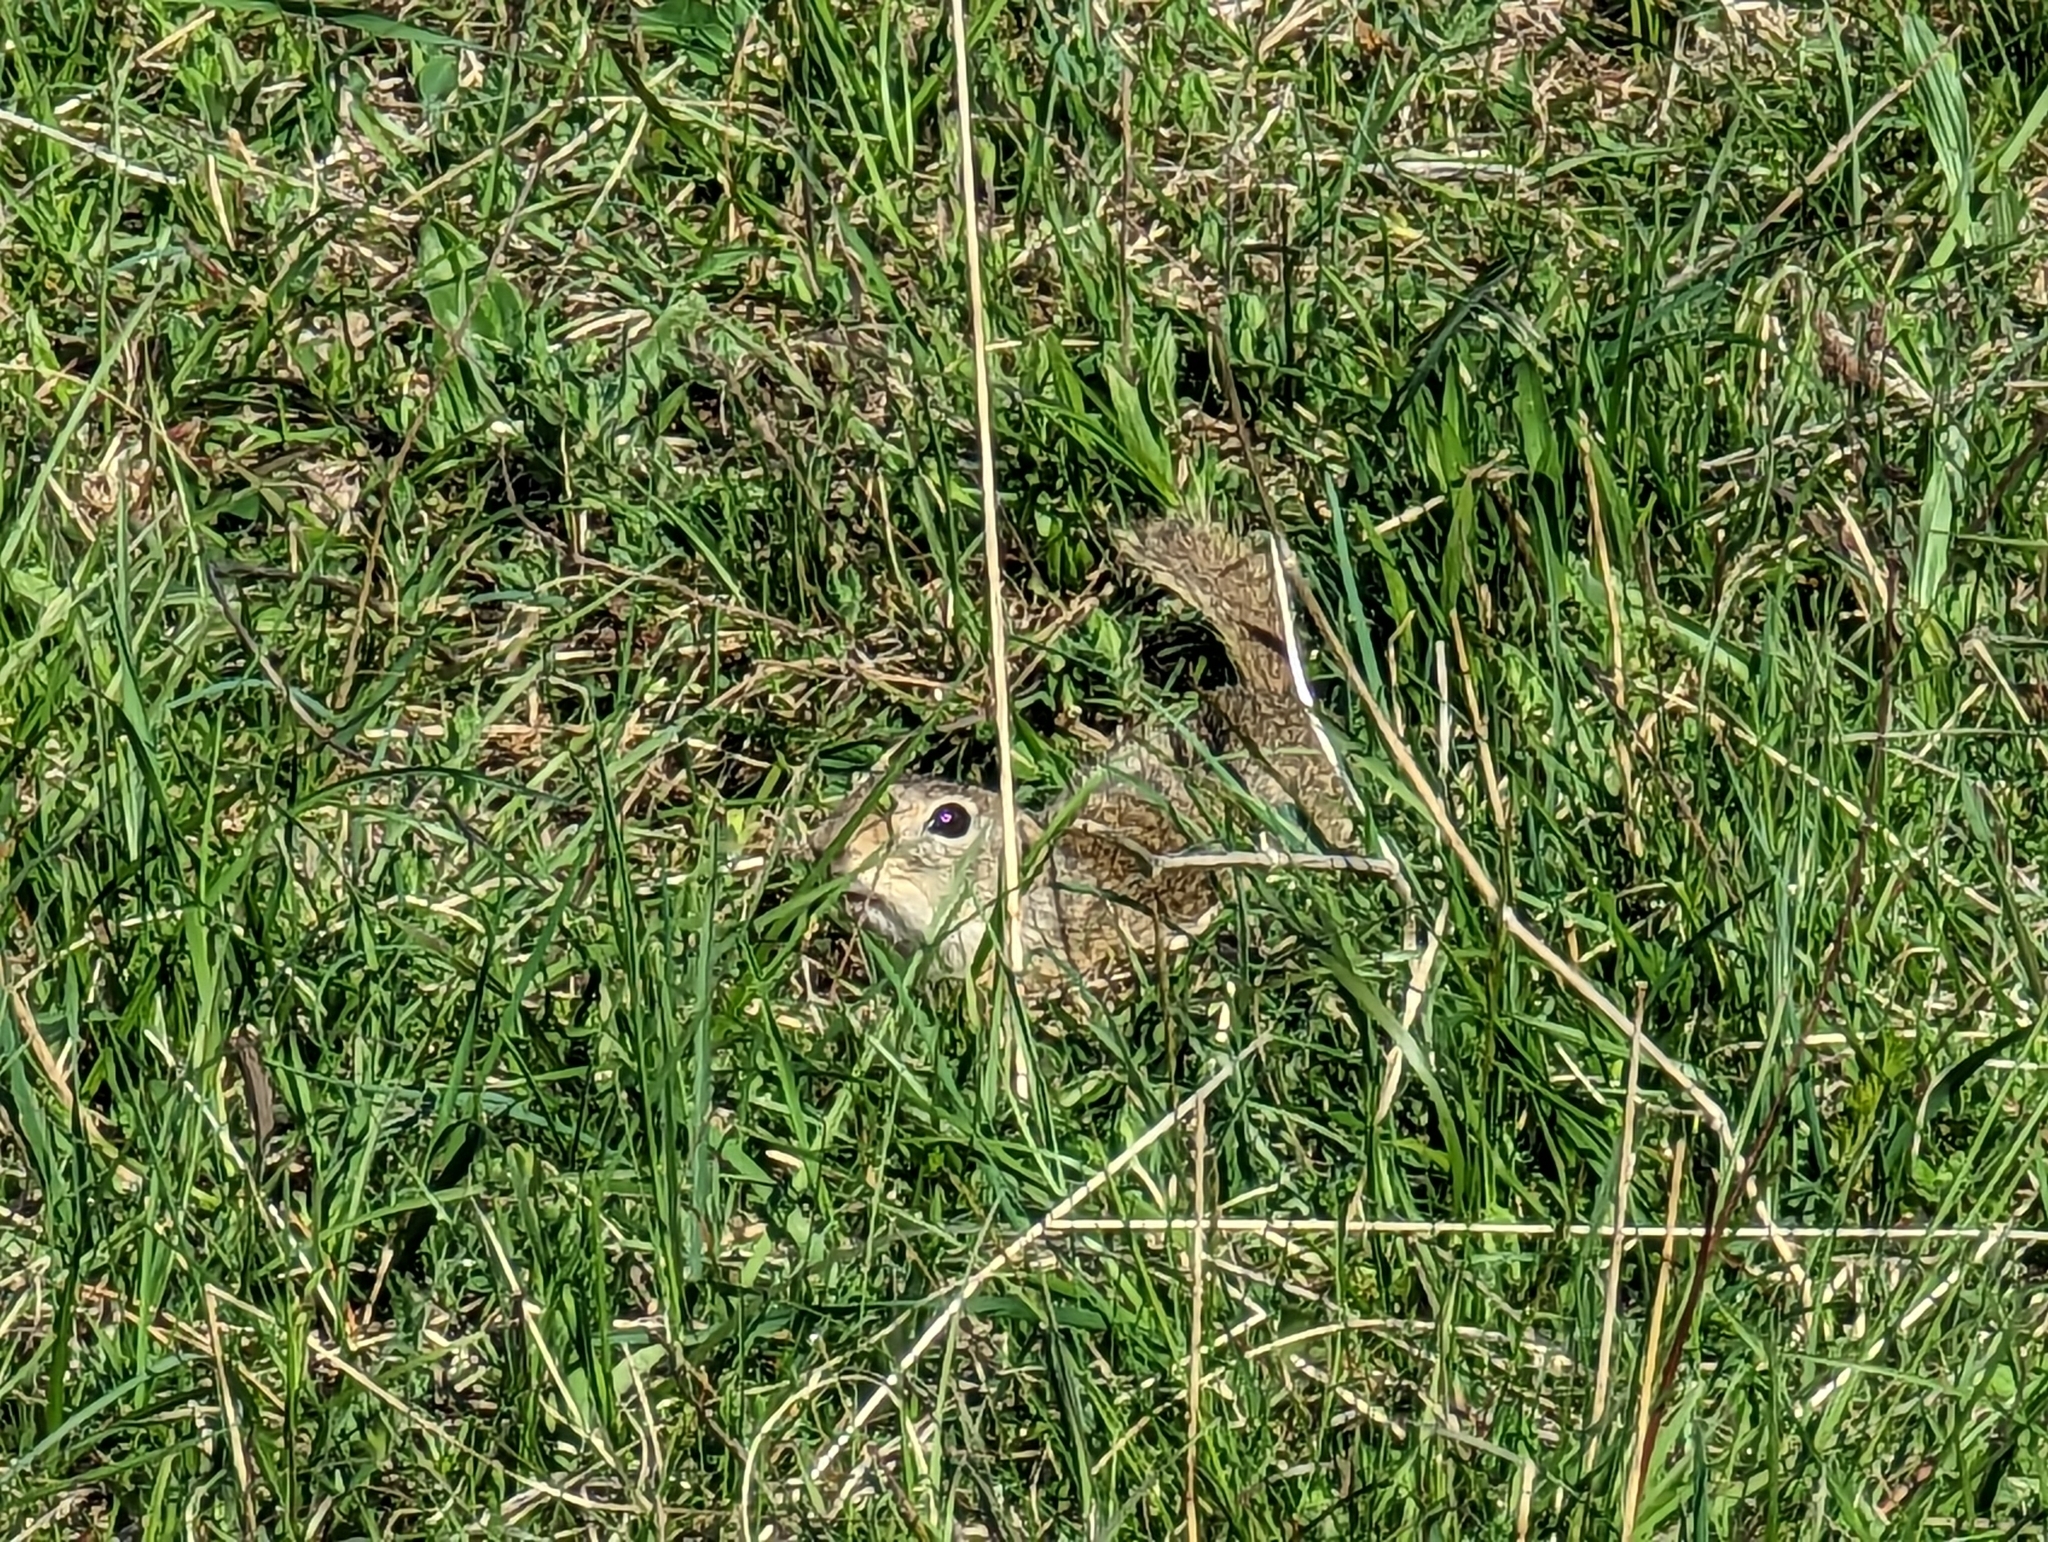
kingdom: Animalia
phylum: Chordata
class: Mammalia
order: Rodentia
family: Sciuridae
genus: Spermophilus
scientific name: Spermophilus citellus
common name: European ground squirrel
